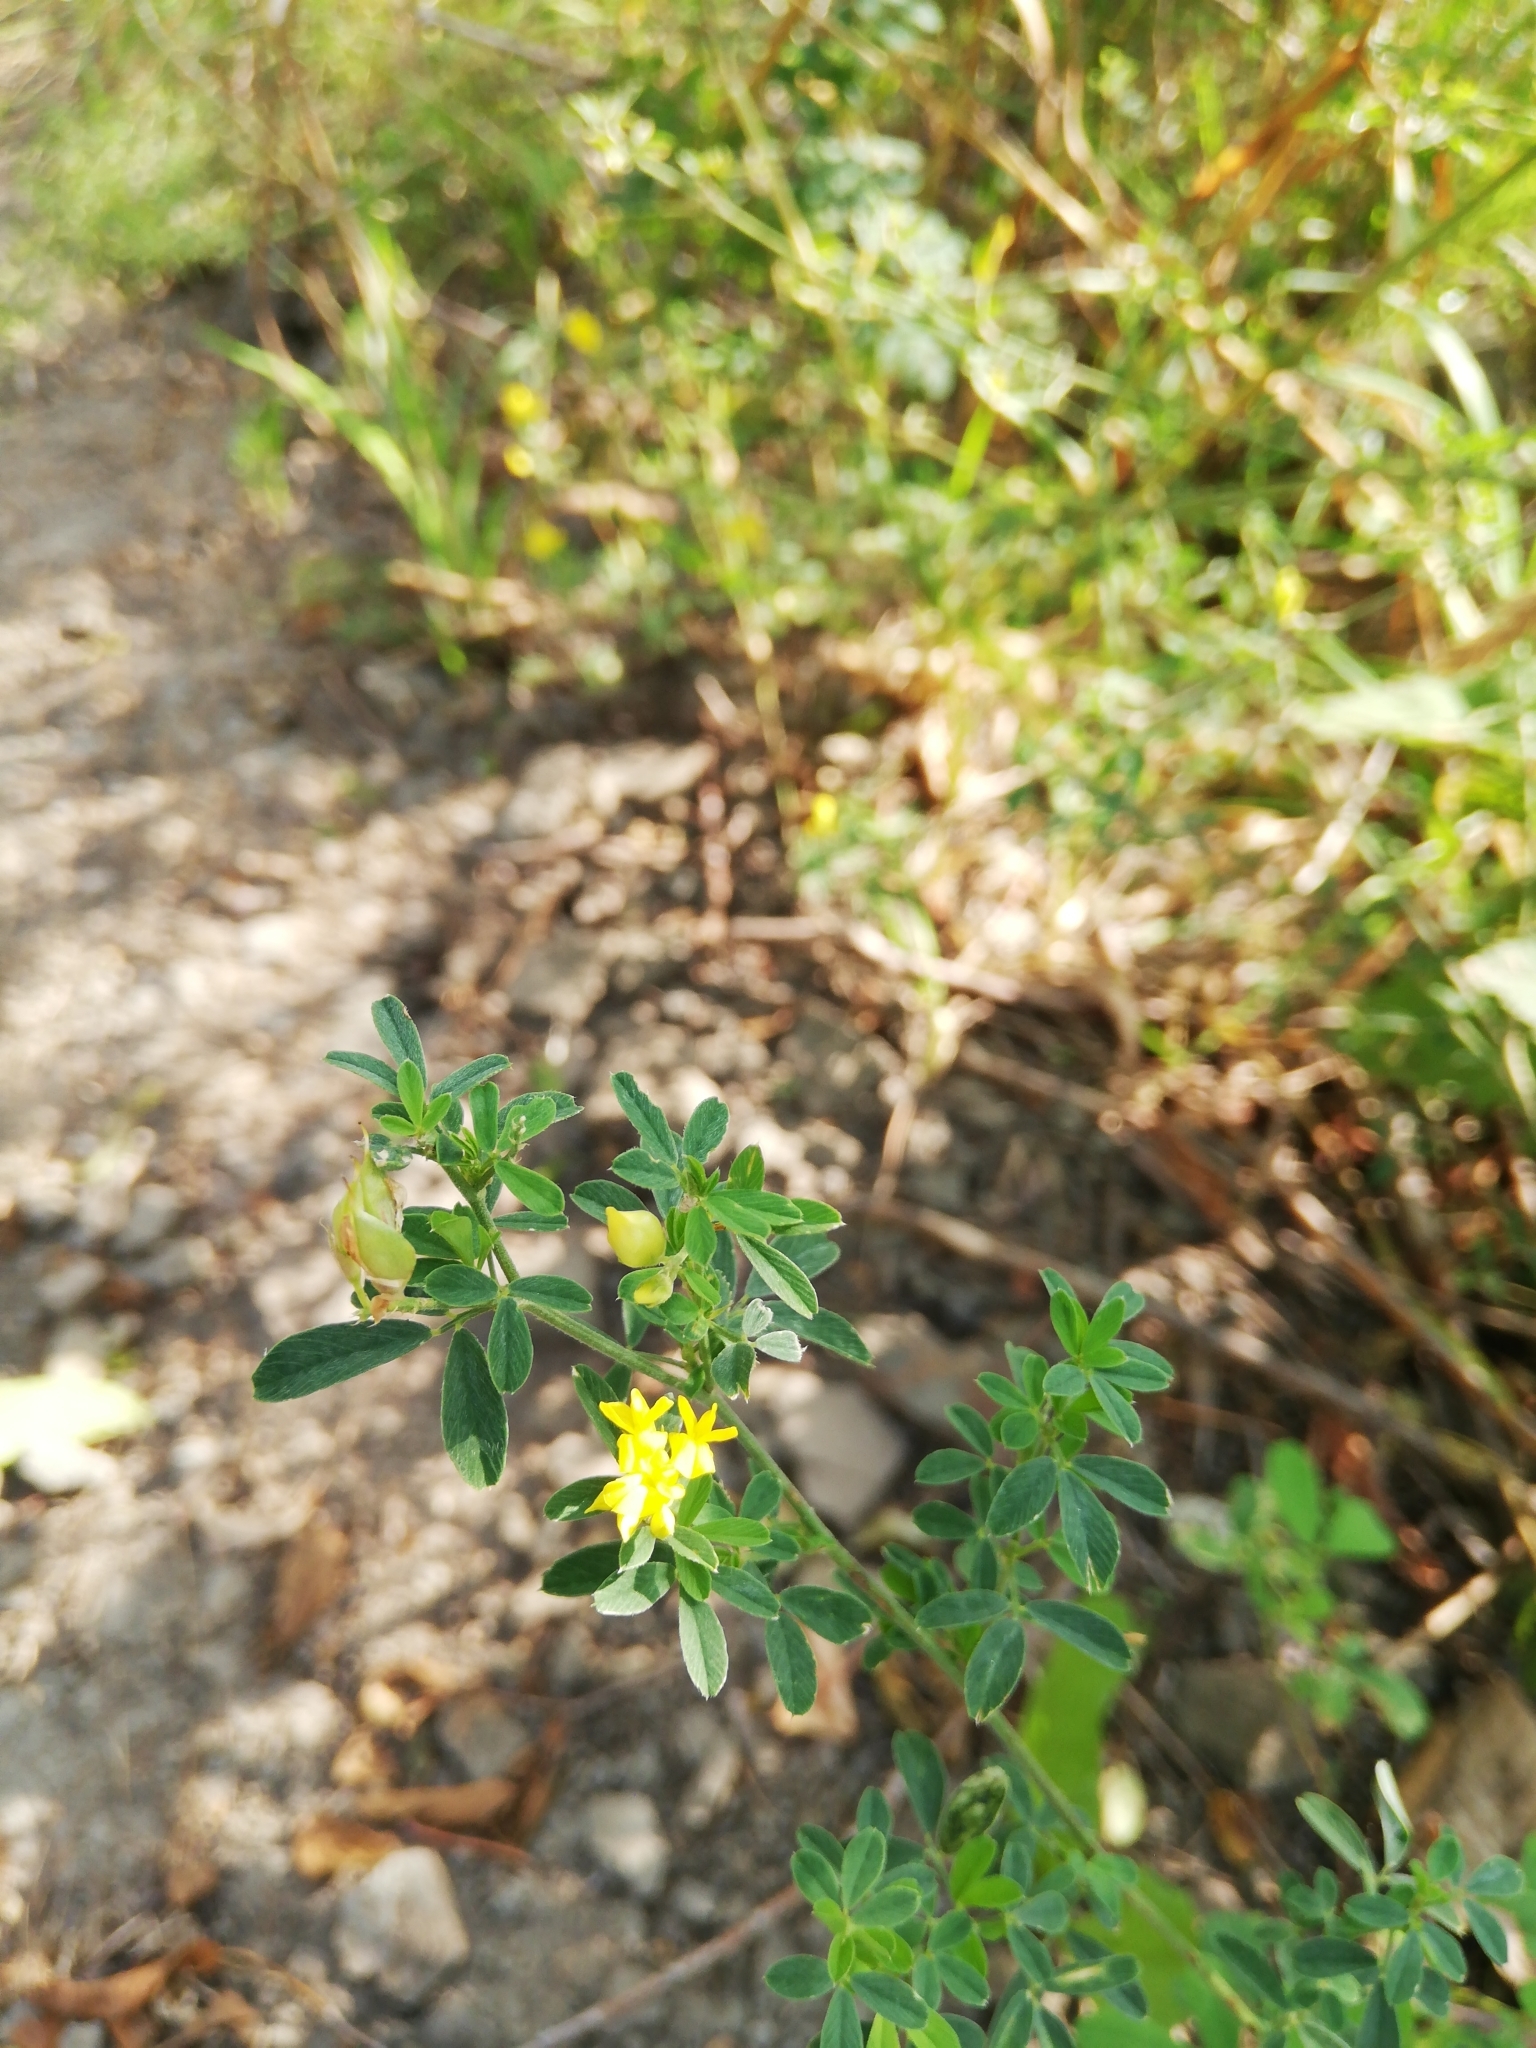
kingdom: Plantae
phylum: Tracheophyta
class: Magnoliopsida
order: Fabales
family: Fabaceae
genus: Medicago
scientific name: Medicago falcata
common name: Sickle medick
